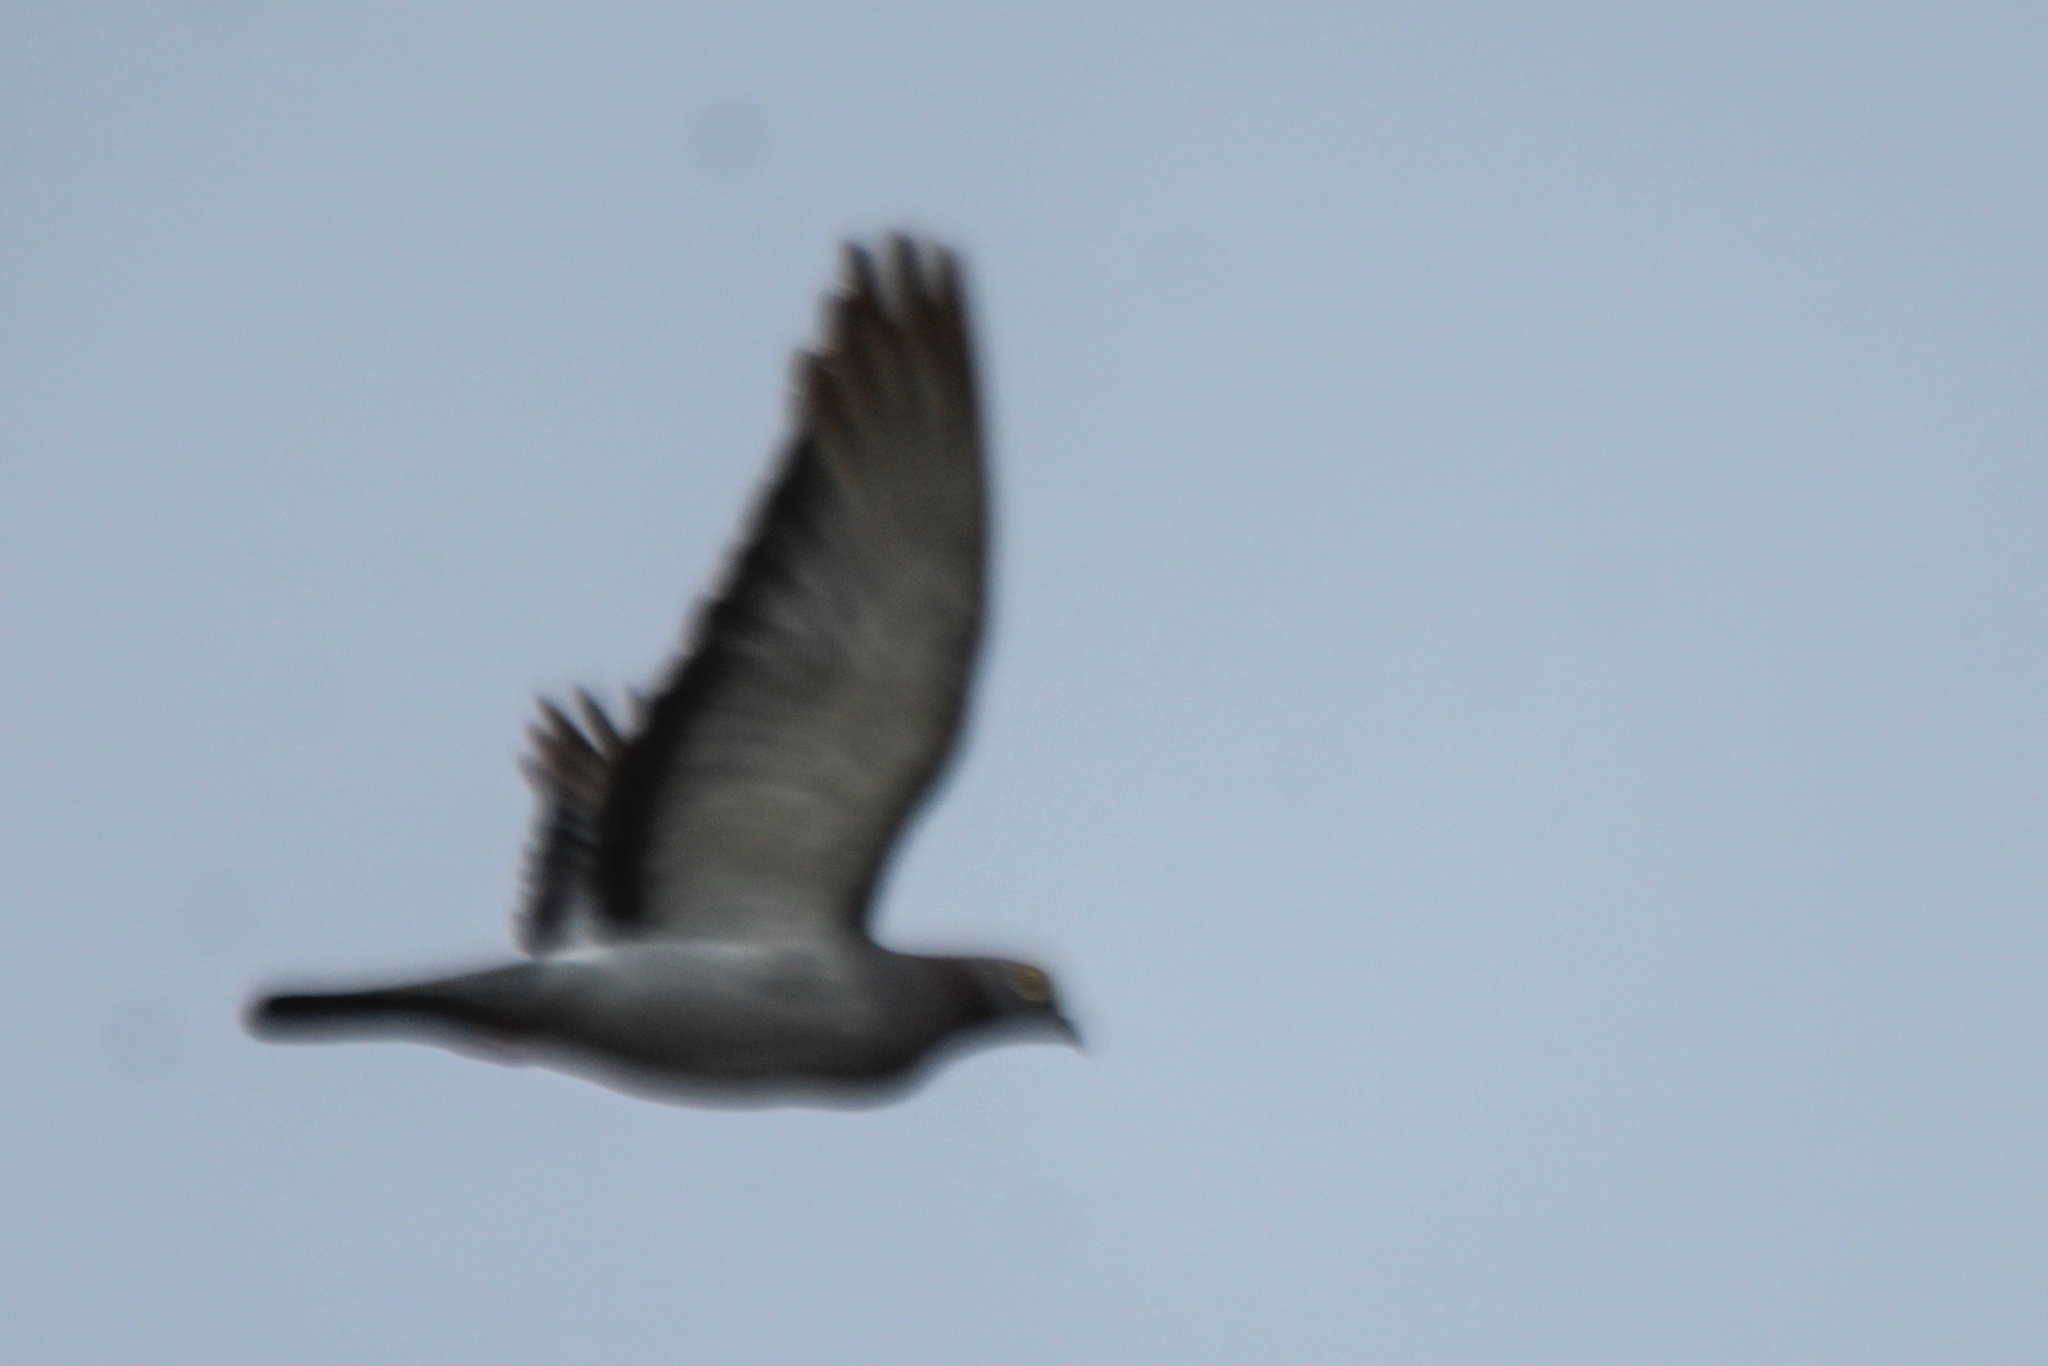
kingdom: Animalia
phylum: Chordata
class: Aves
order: Columbiformes
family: Columbidae
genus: Columba
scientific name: Columba eversmanni
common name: Yellow-eyed pigeon
